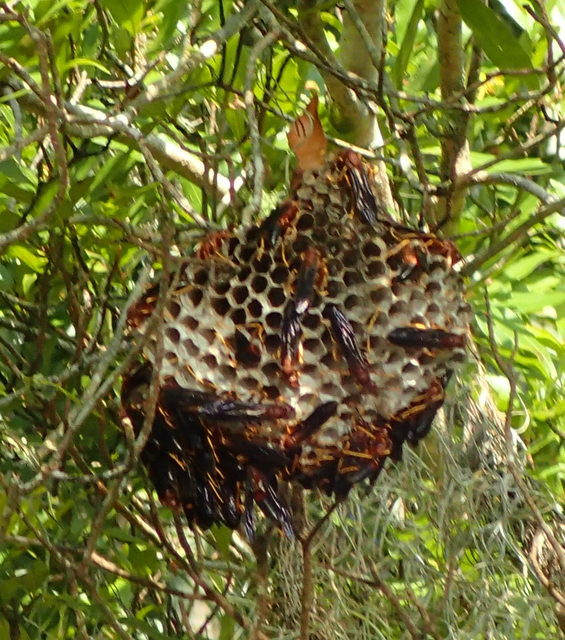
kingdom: Animalia
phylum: Arthropoda
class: Insecta
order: Hymenoptera
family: Eumenidae
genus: Polistes
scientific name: Polistes annularis
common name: Ringed paper wasp
